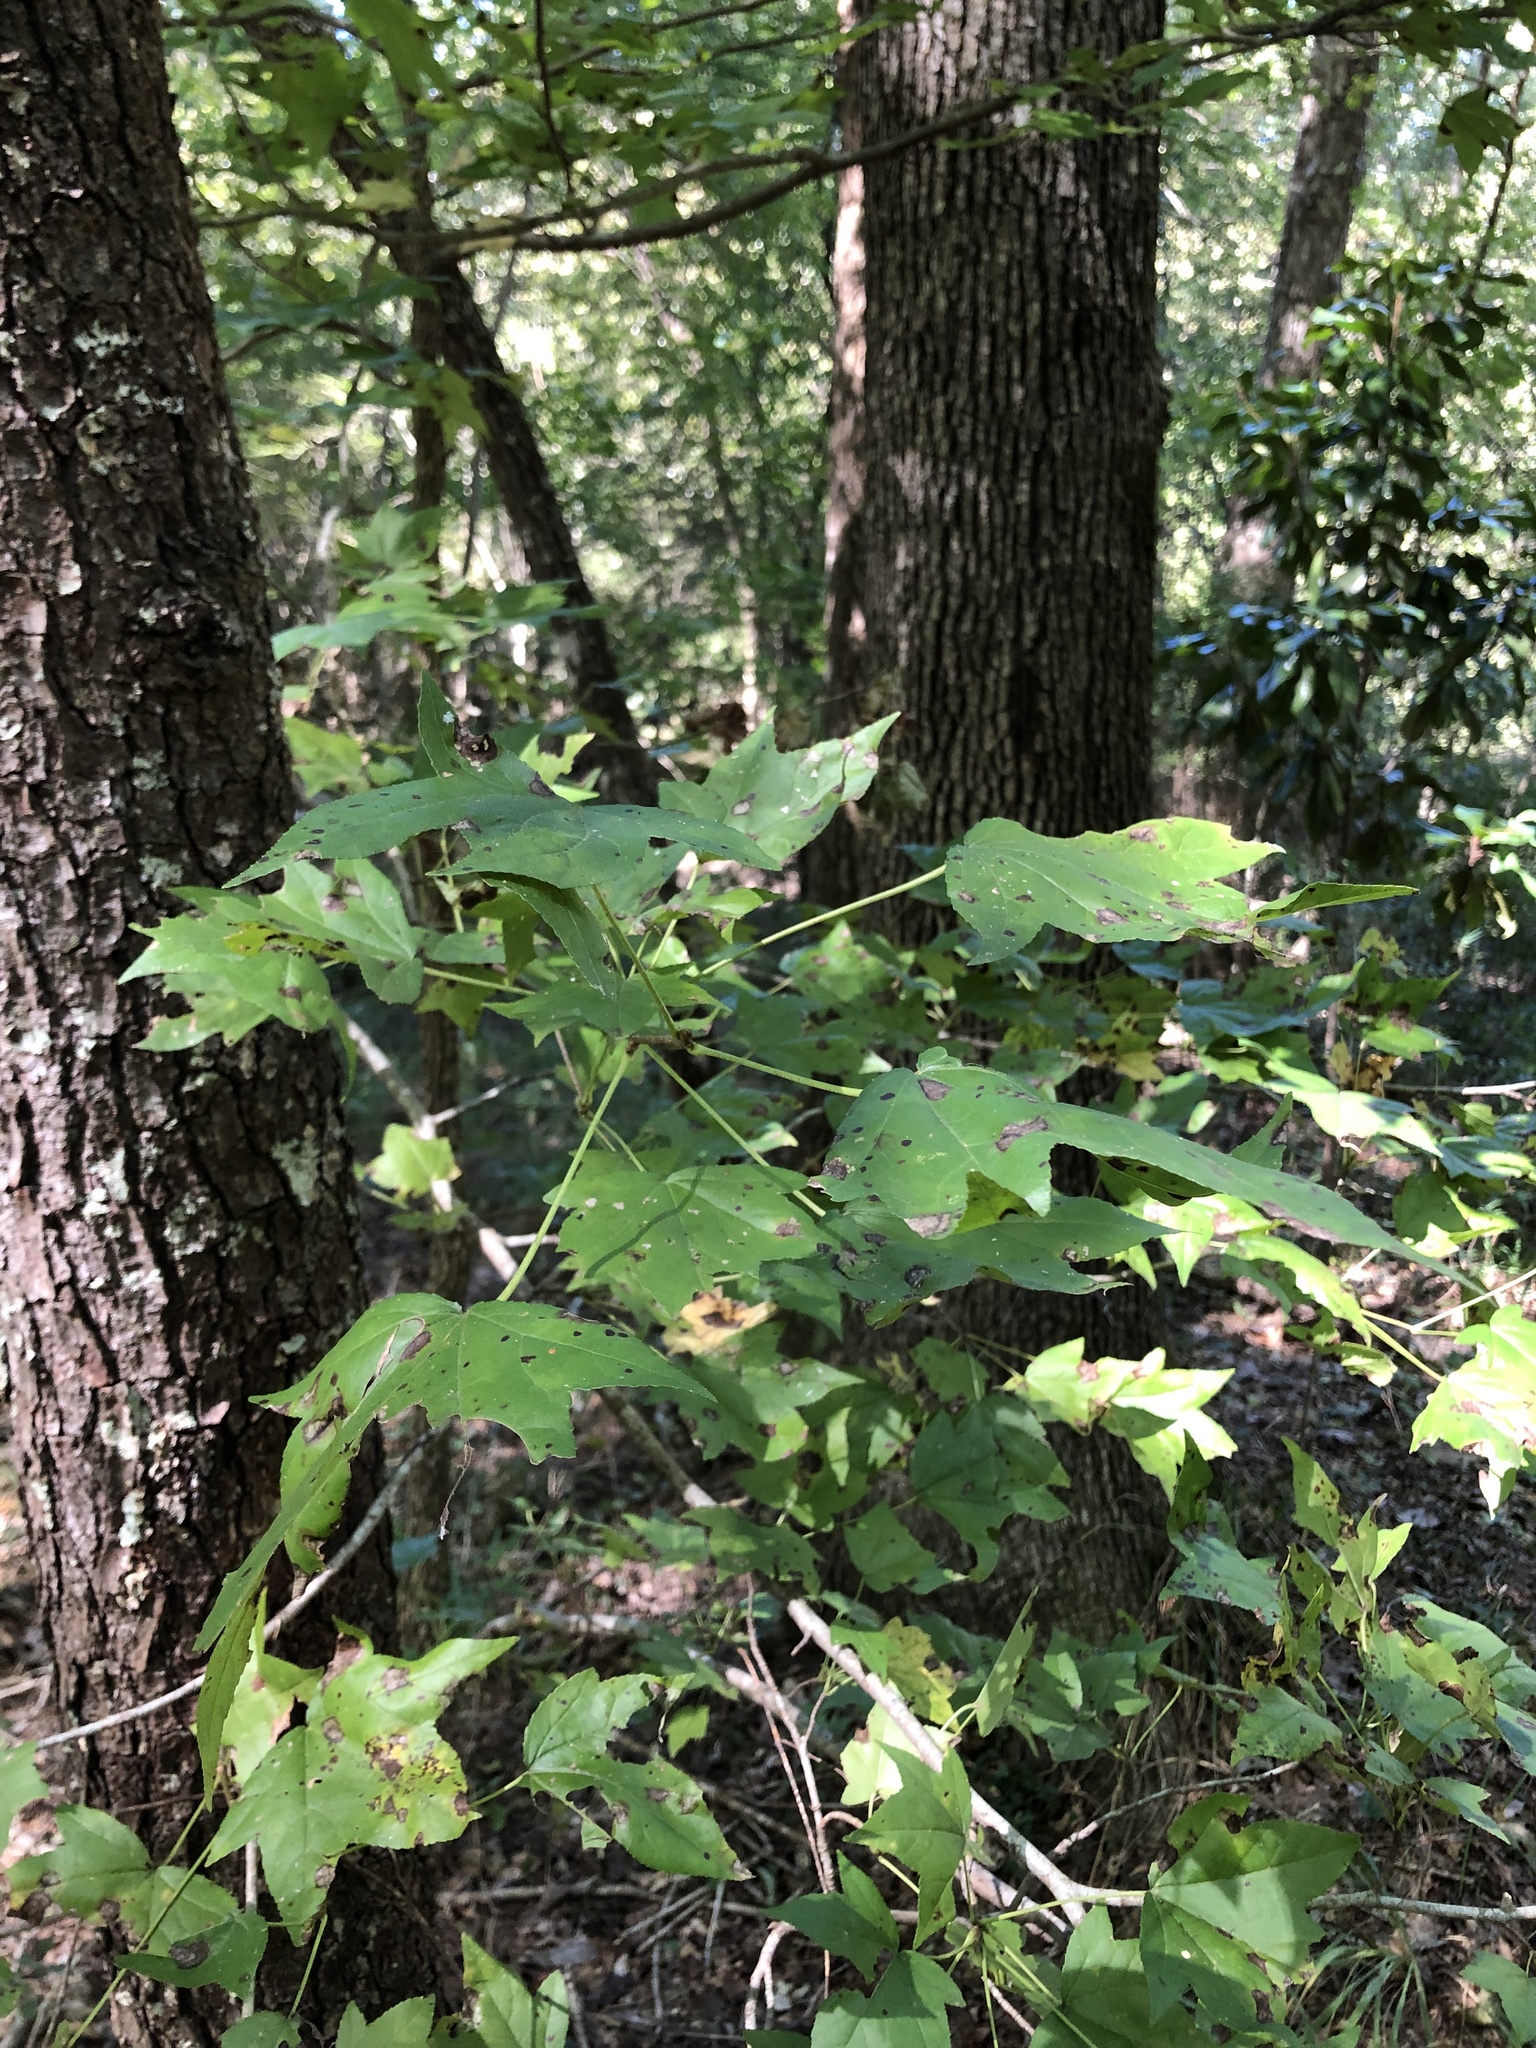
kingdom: Plantae
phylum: Tracheophyta
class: Magnoliopsida
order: Saxifragales
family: Altingiaceae
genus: Liquidambar
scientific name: Liquidambar styraciflua
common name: Sweet gum
